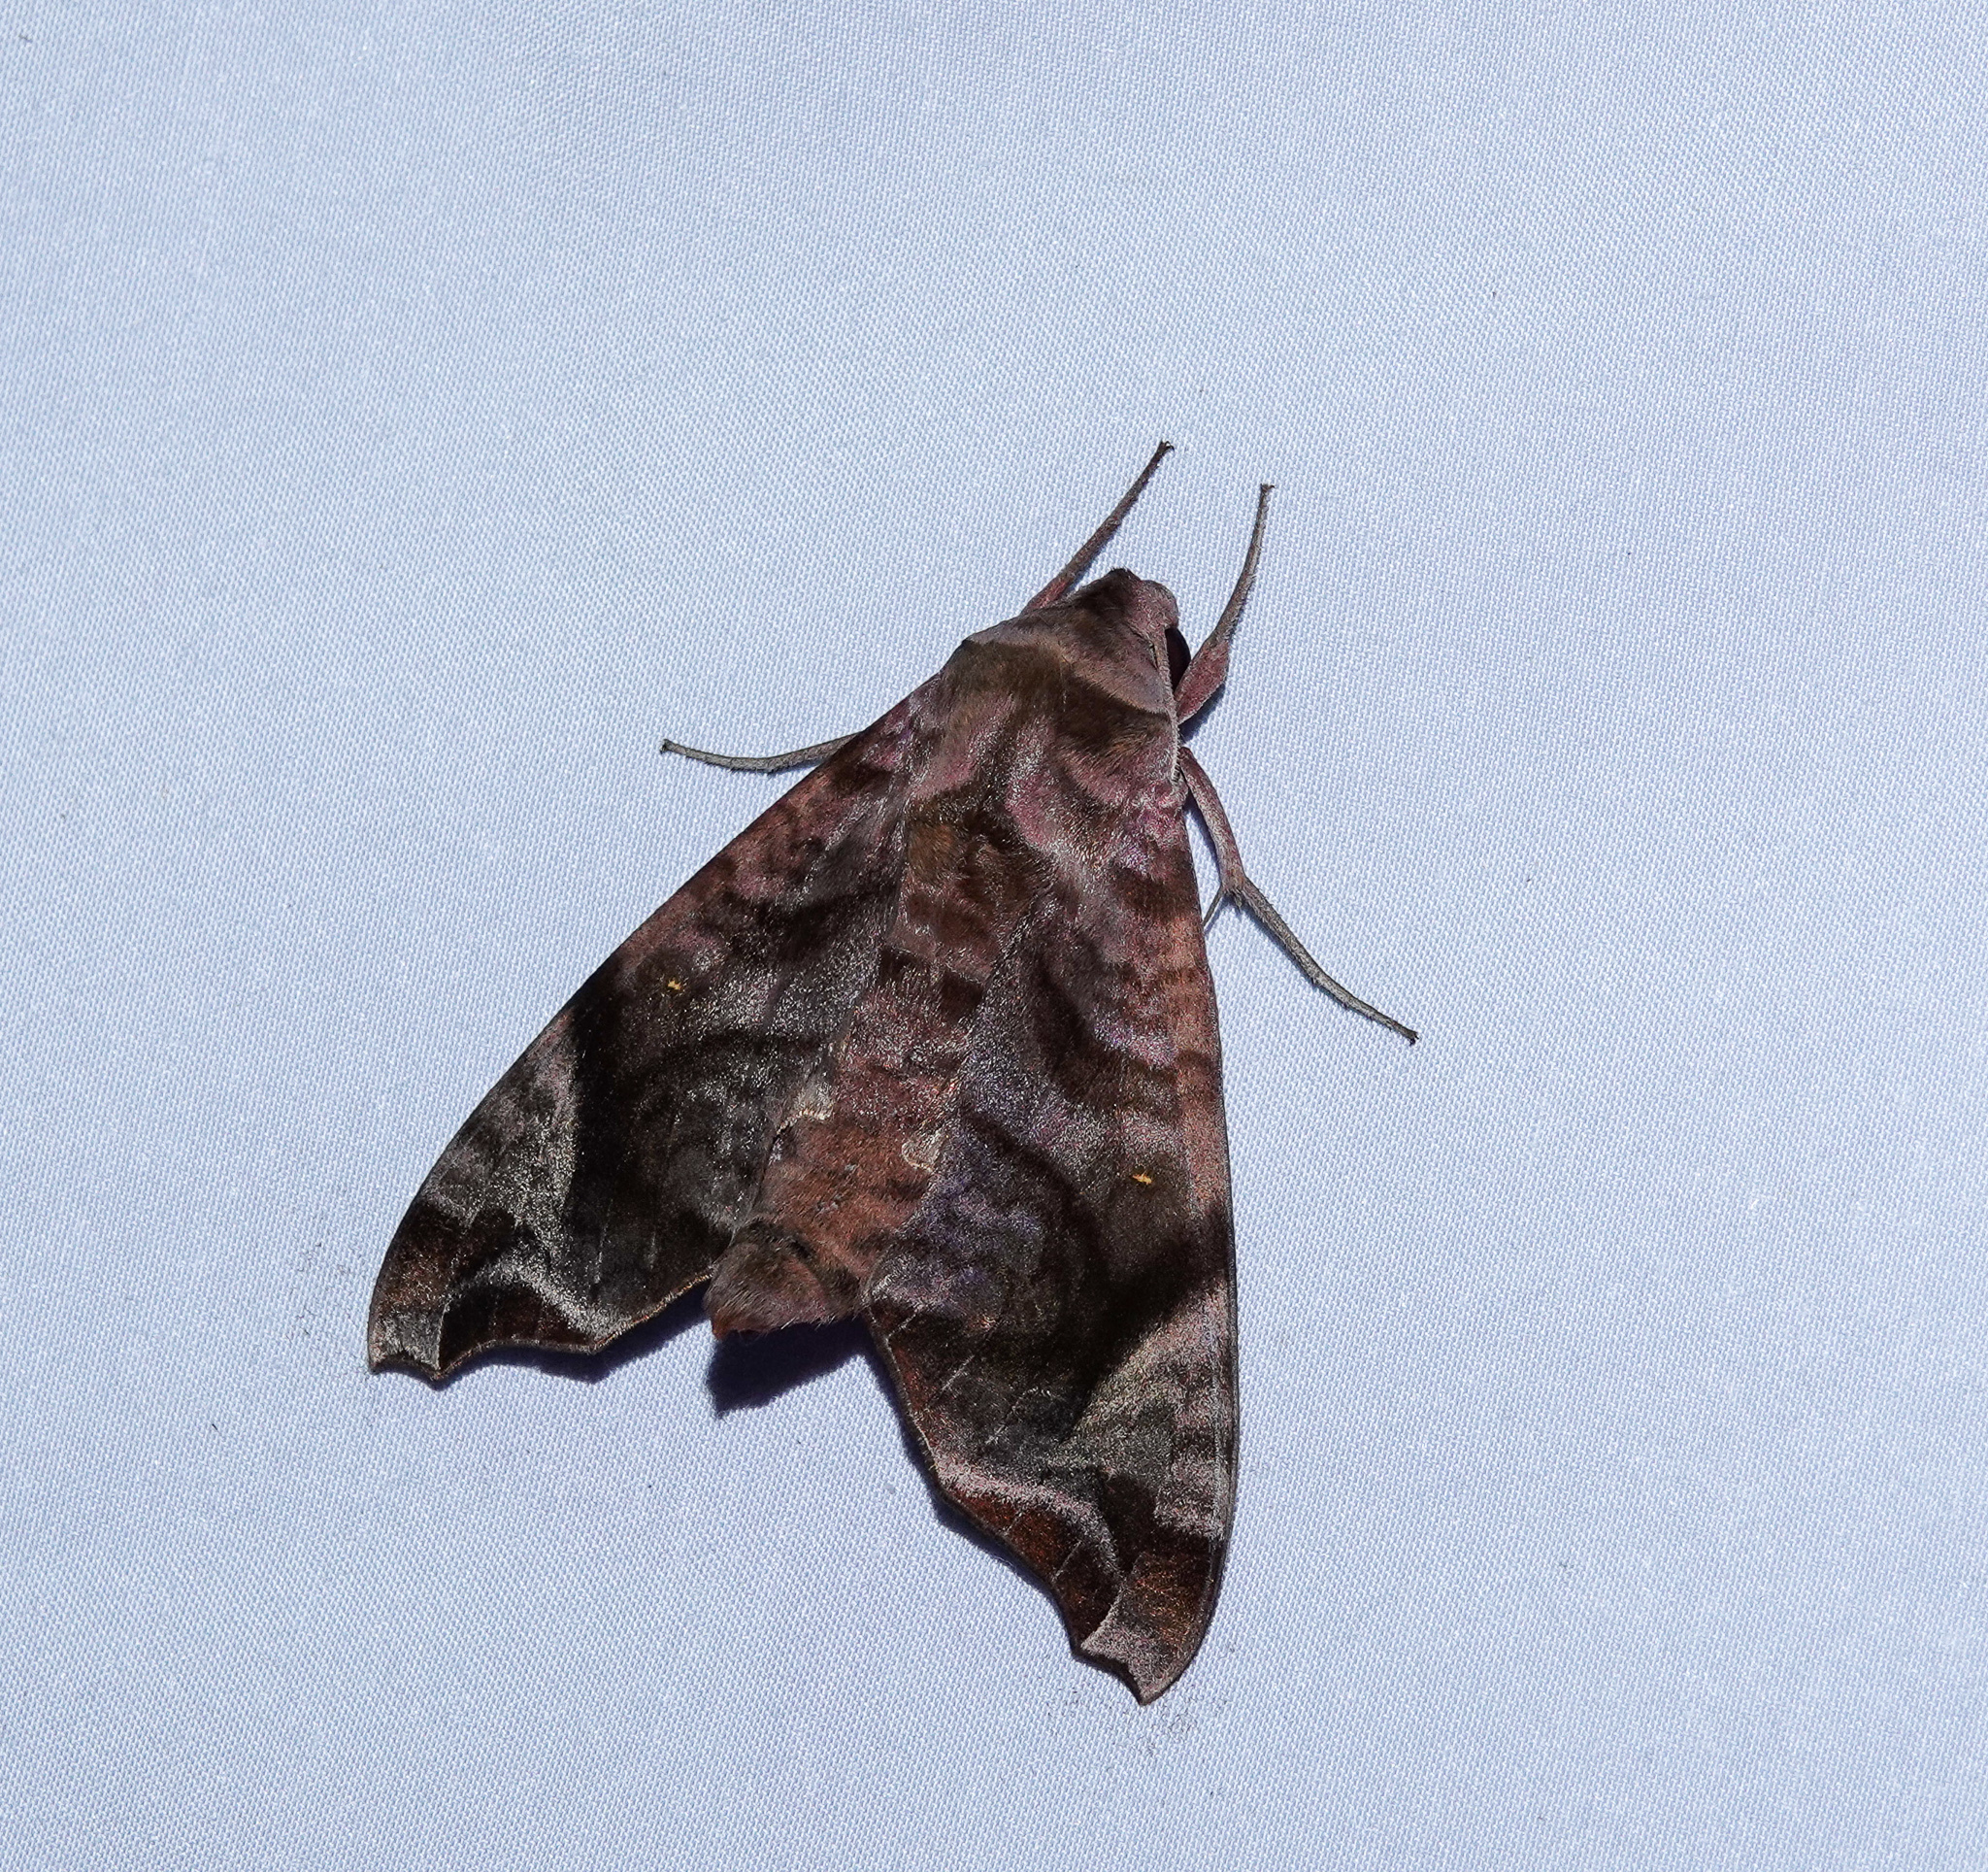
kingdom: Animalia
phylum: Arthropoda
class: Insecta
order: Lepidoptera
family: Sphingidae
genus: Acosmeryx
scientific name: Acosmeryx anceus
